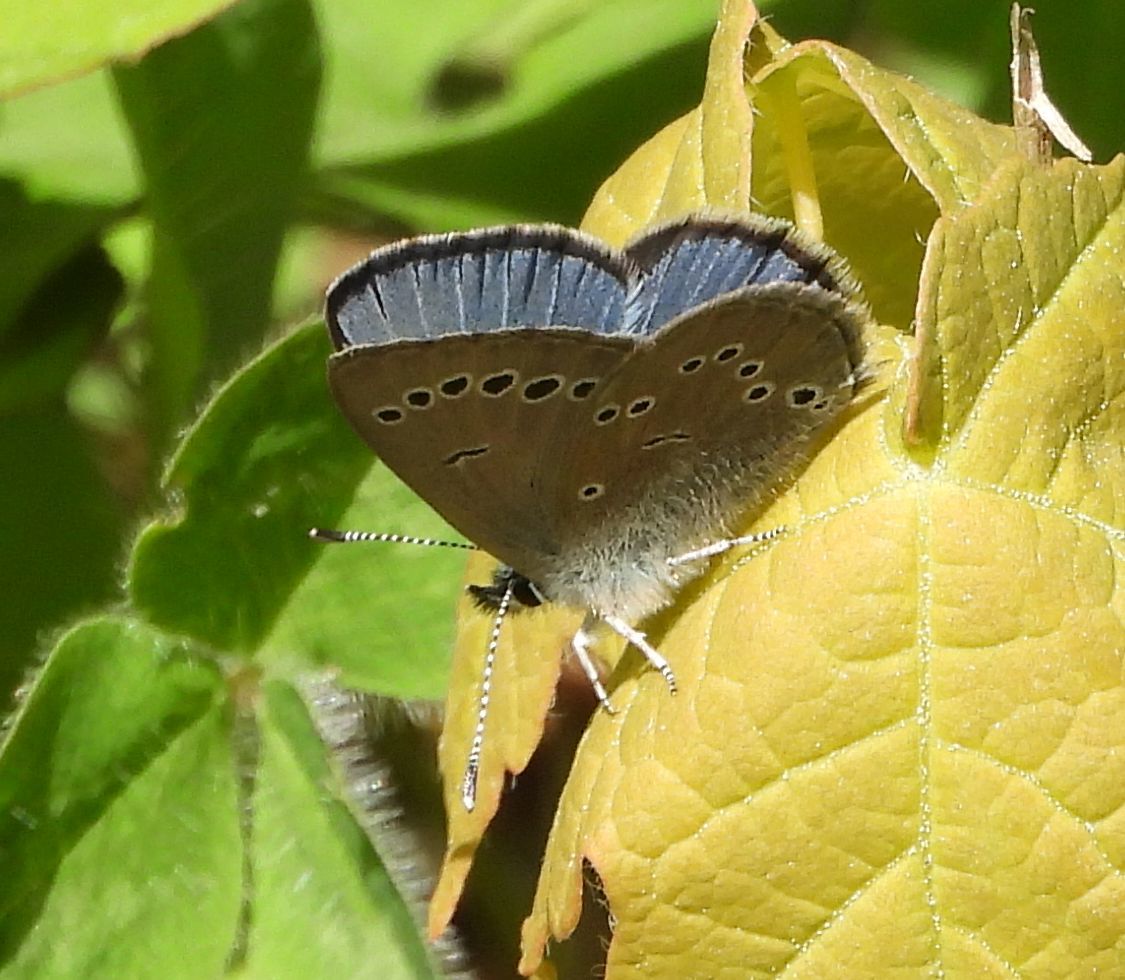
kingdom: Animalia
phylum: Arthropoda
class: Insecta
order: Lepidoptera
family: Lycaenidae
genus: Glaucopsyche
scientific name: Glaucopsyche lygdamus
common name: Silvery blue
